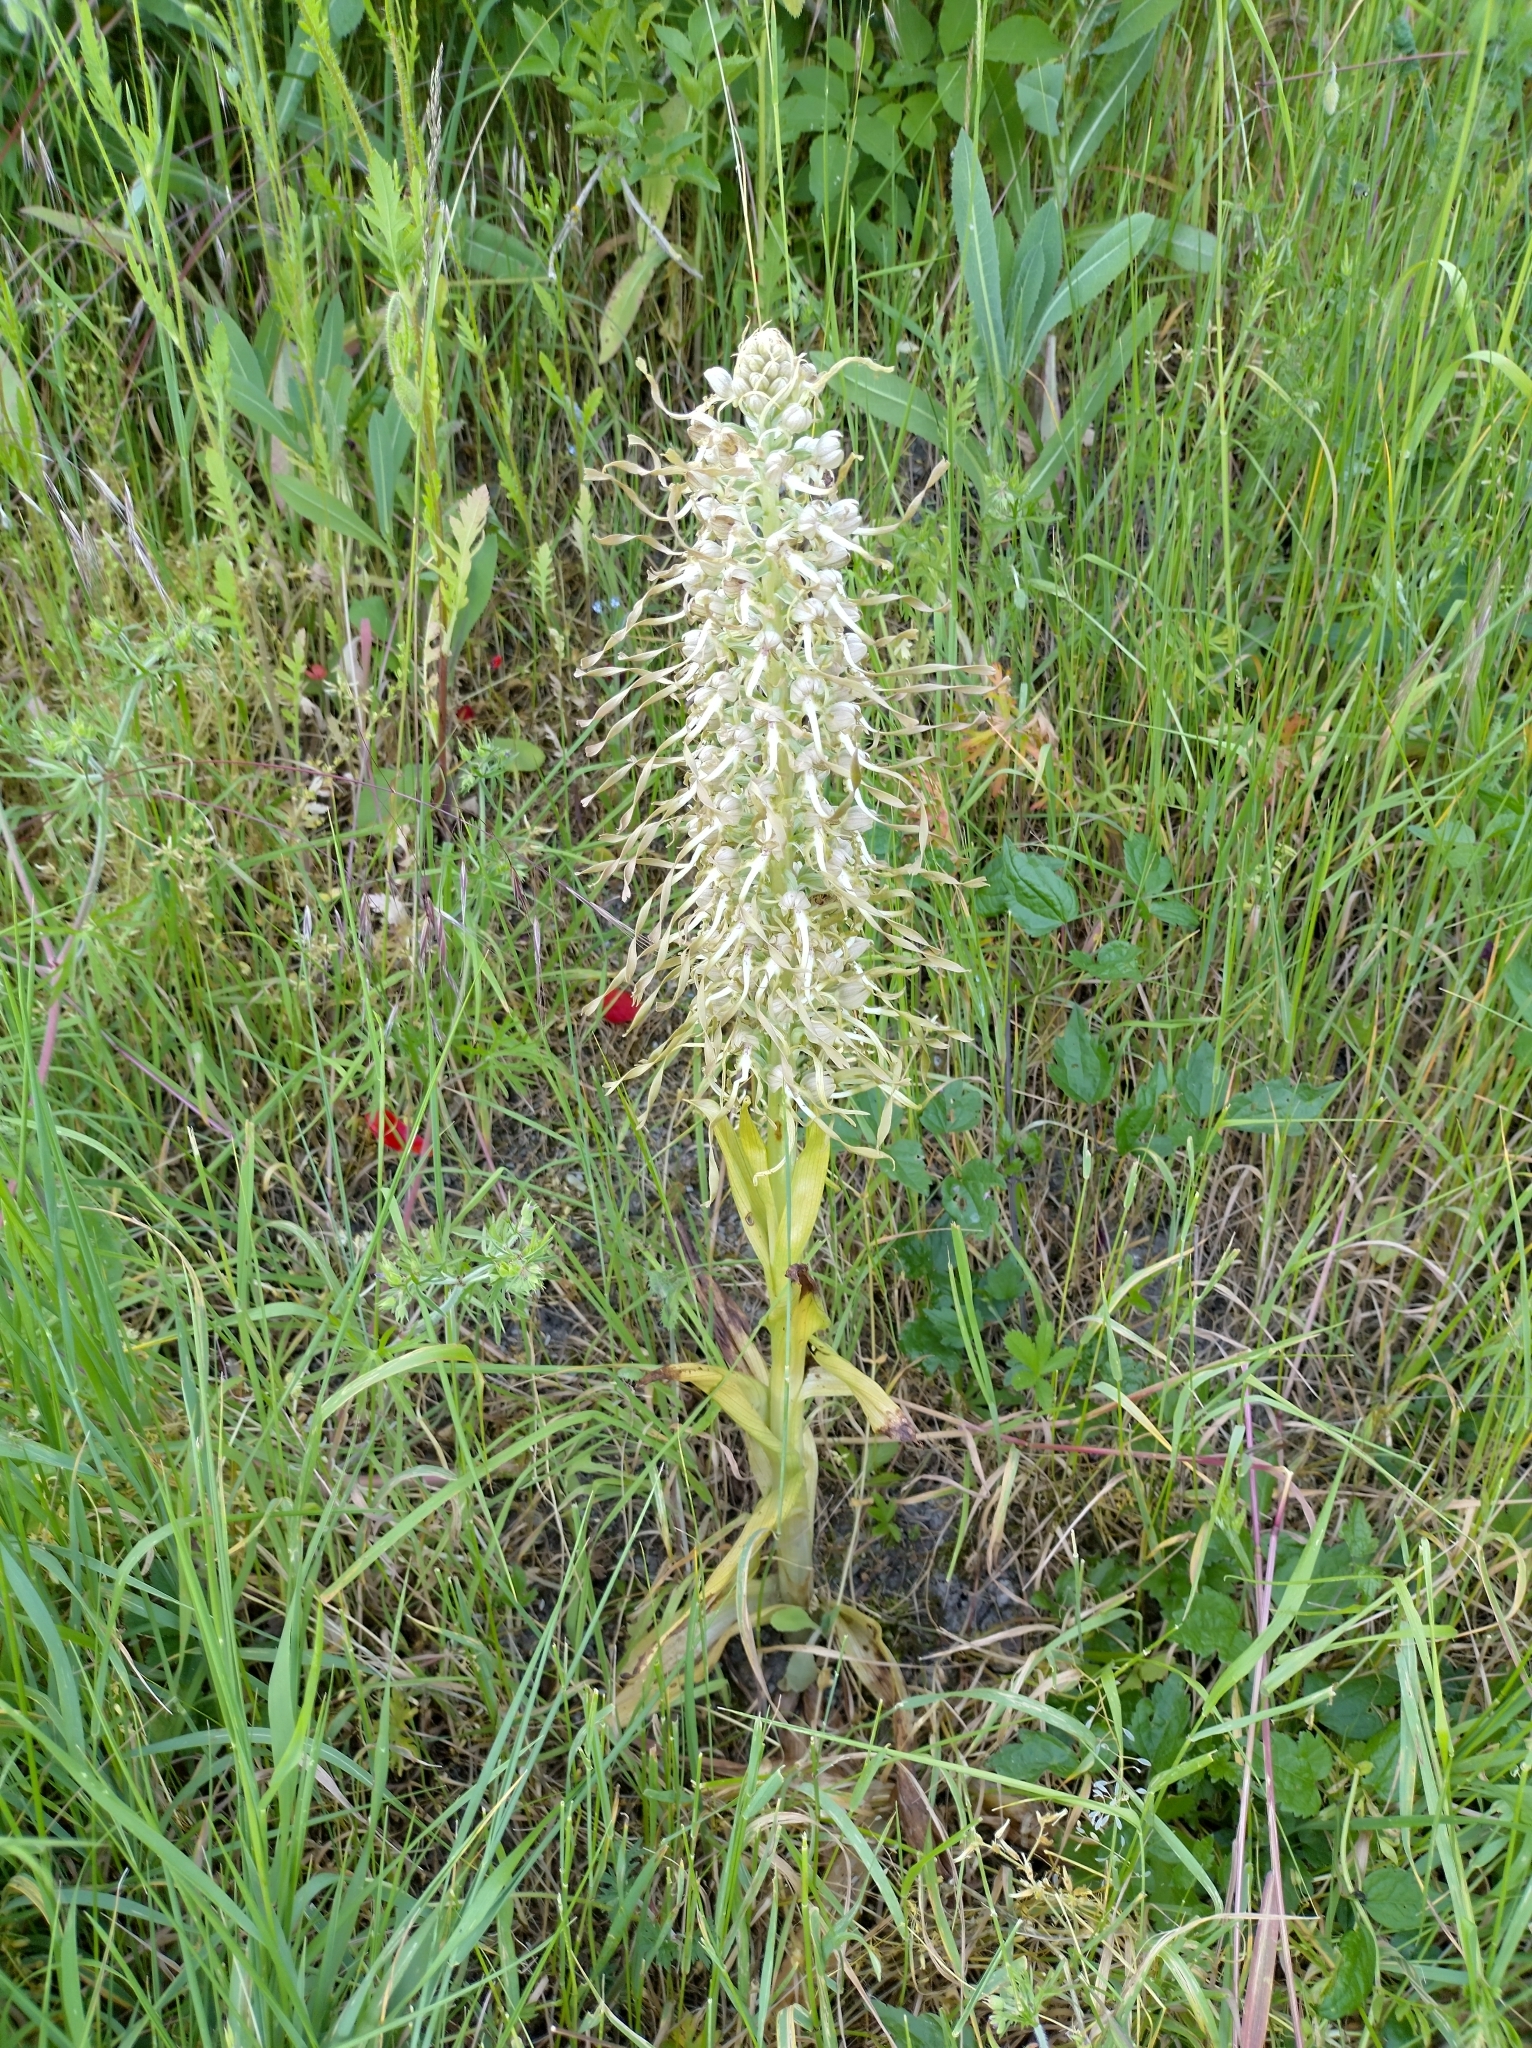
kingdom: Plantae
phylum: Tracheophyta
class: Liliopsida
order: Asparagales
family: Orchidaceae
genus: Himantoglossum
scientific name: Himantoglossum hircinum
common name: Lizard orchid
